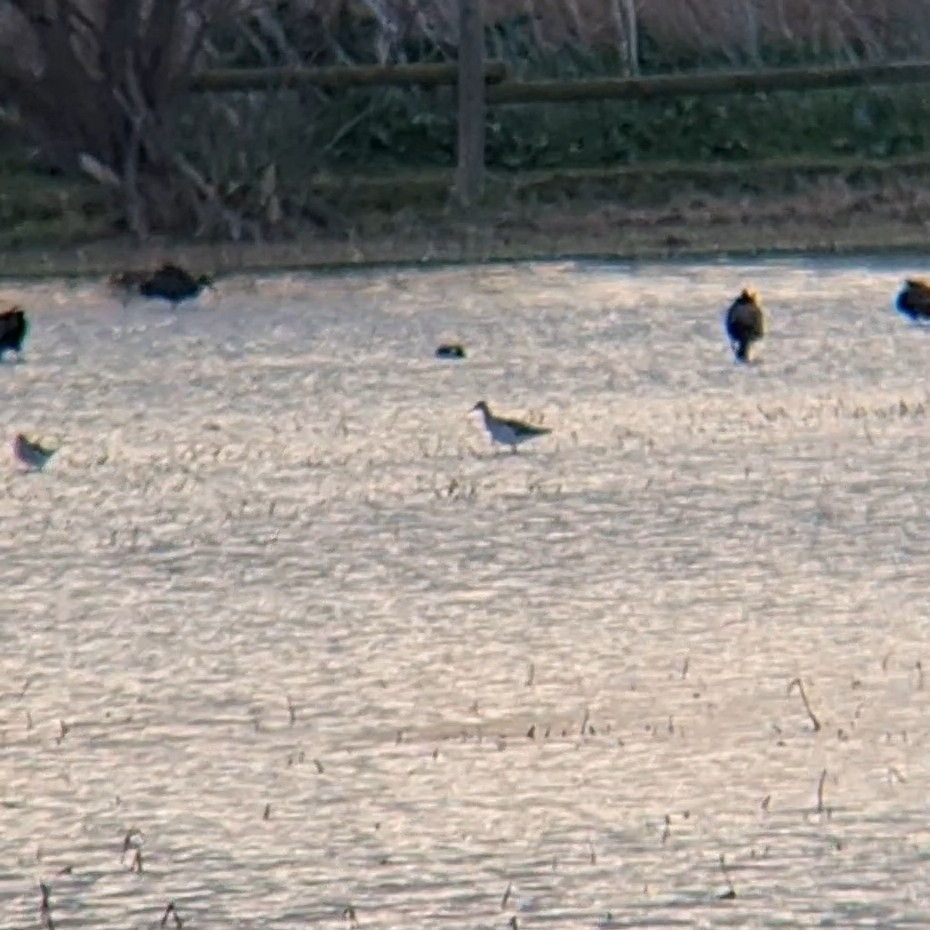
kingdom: Animalia
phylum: Chordata
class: Aves
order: Charadriiformes
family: Scolopacidae
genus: Calidris
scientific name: Calidris pugnax
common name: Ruff
